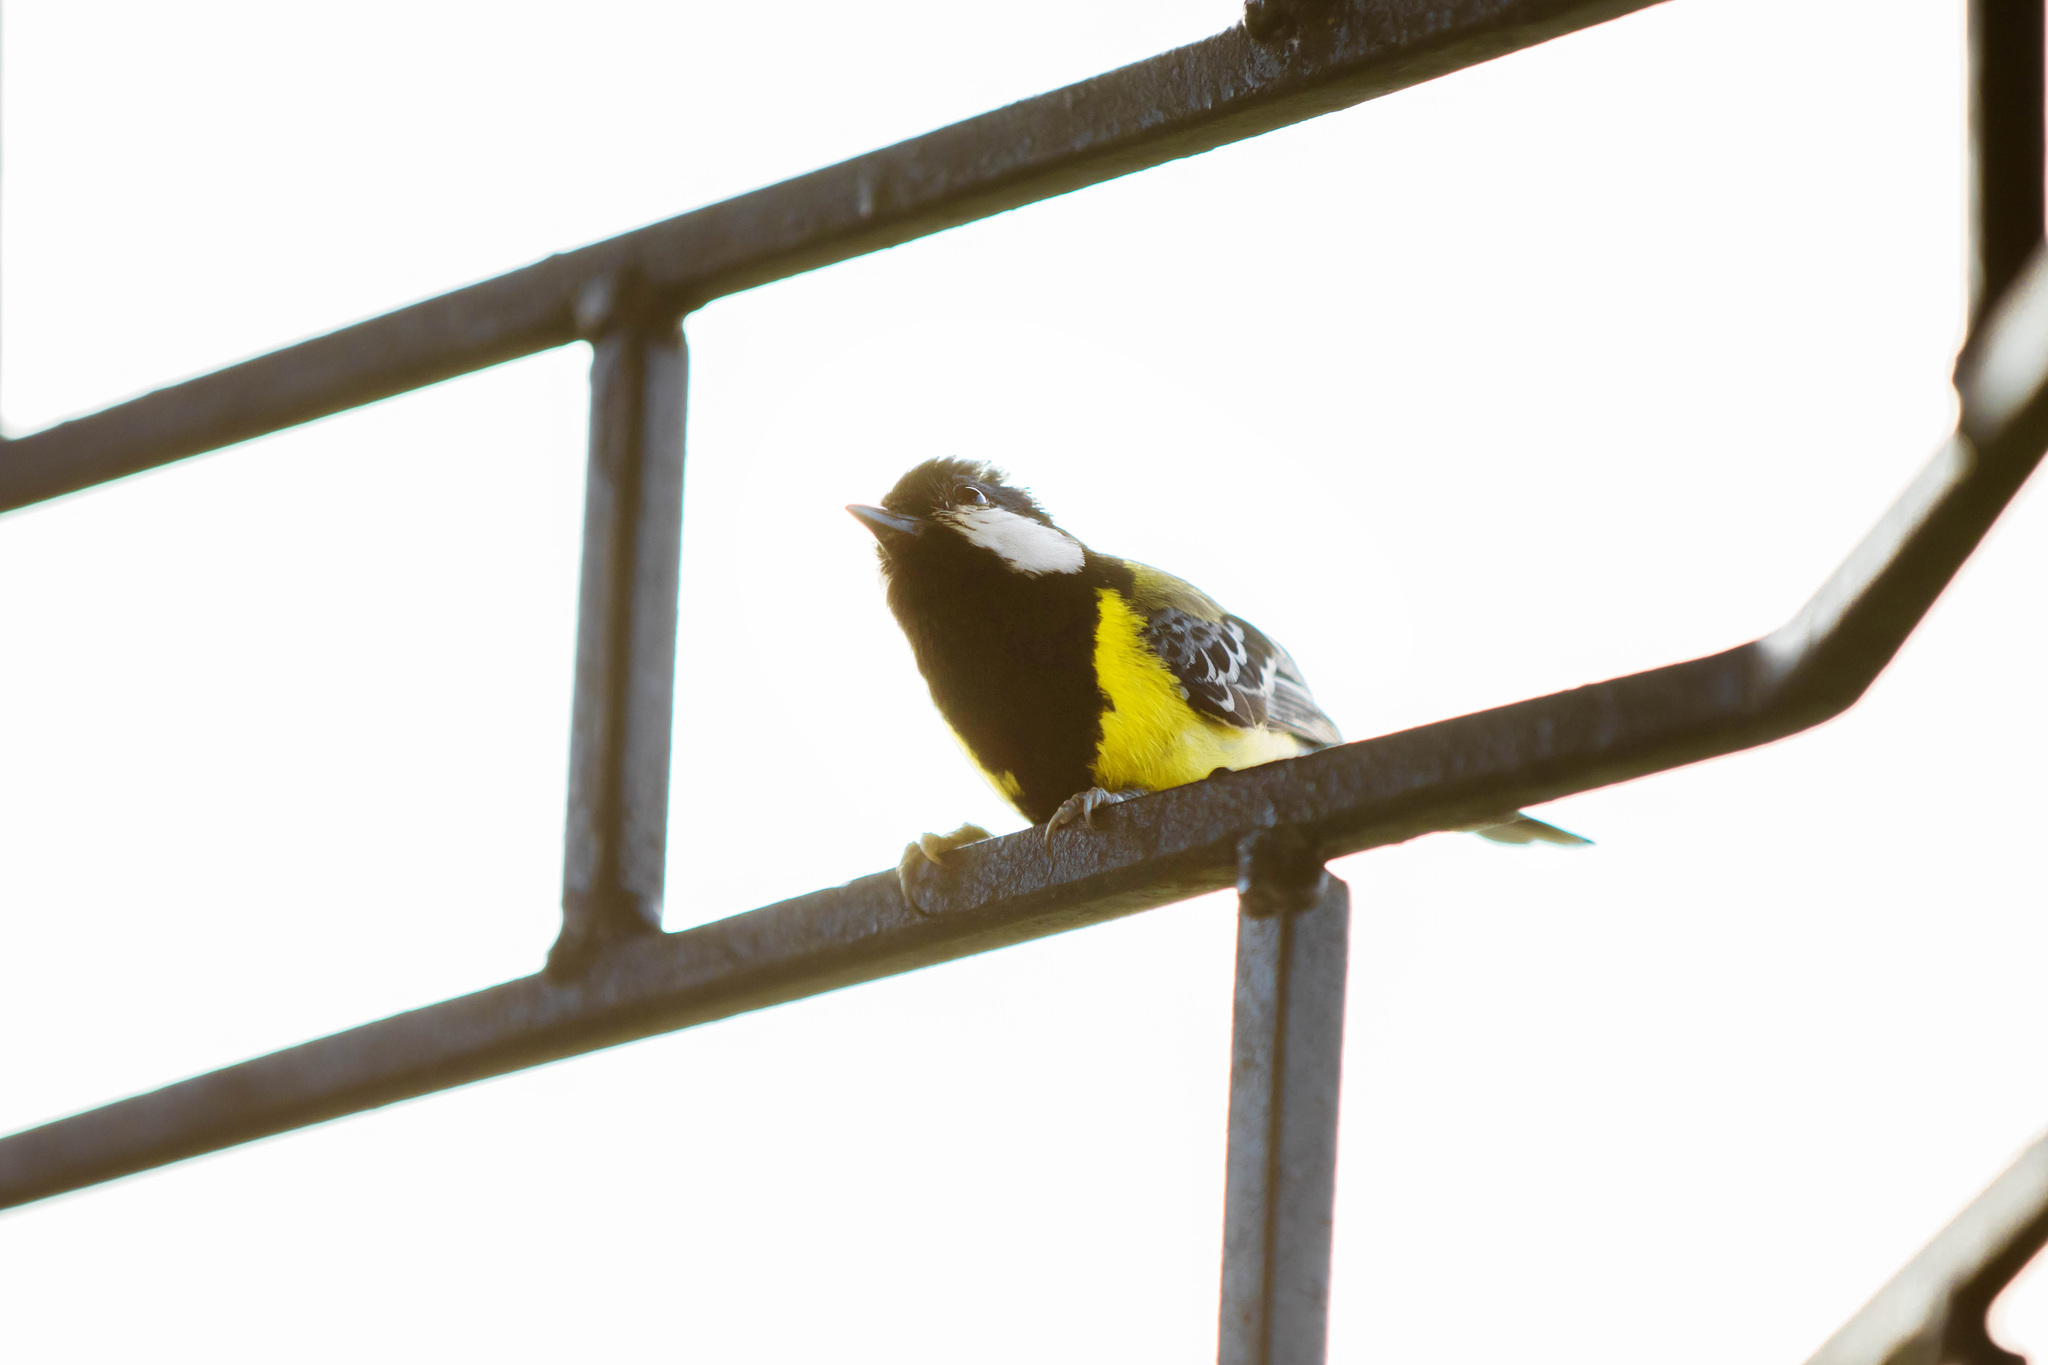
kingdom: Animalia
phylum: Chordata
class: Aves
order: Passeriformes
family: Paridae
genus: Parus
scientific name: Parus monticolus
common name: Green-backed tit
